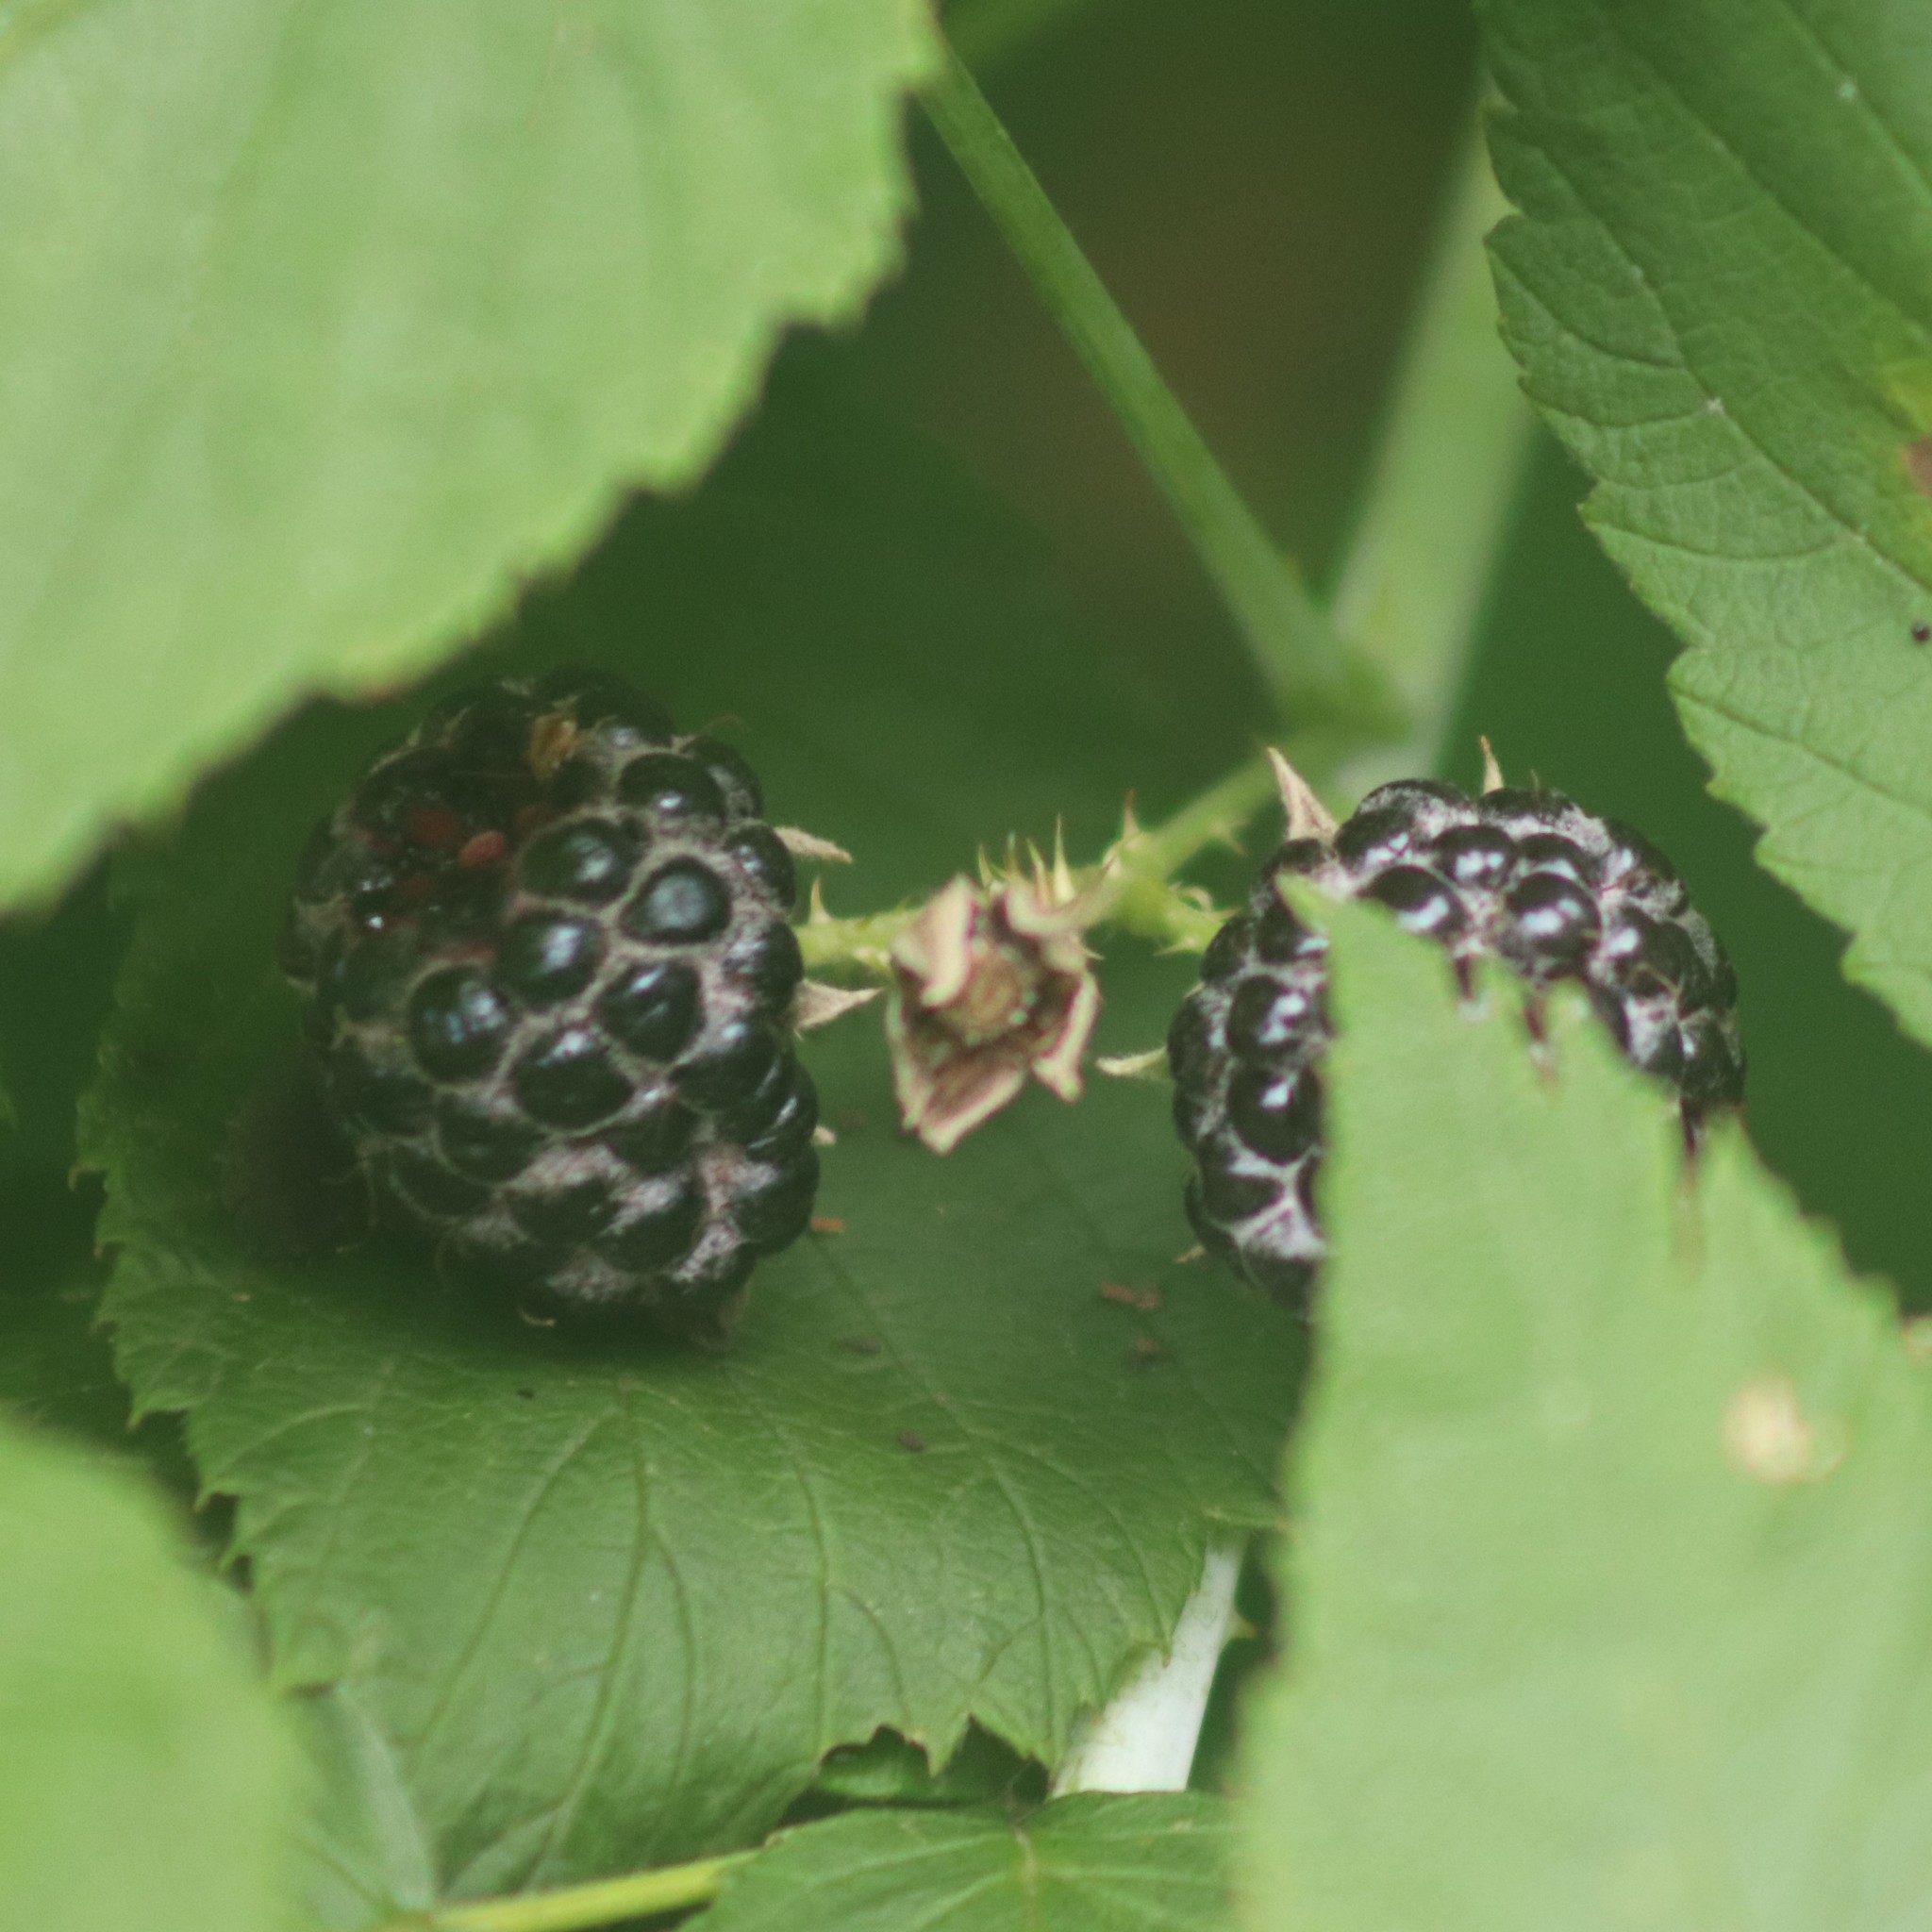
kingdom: Plantae
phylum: Tracheophyta
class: Magnoliopsida
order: Rosales
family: Rosaceae
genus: Rubus
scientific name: Rubus occidentalis
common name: Black raspberry
